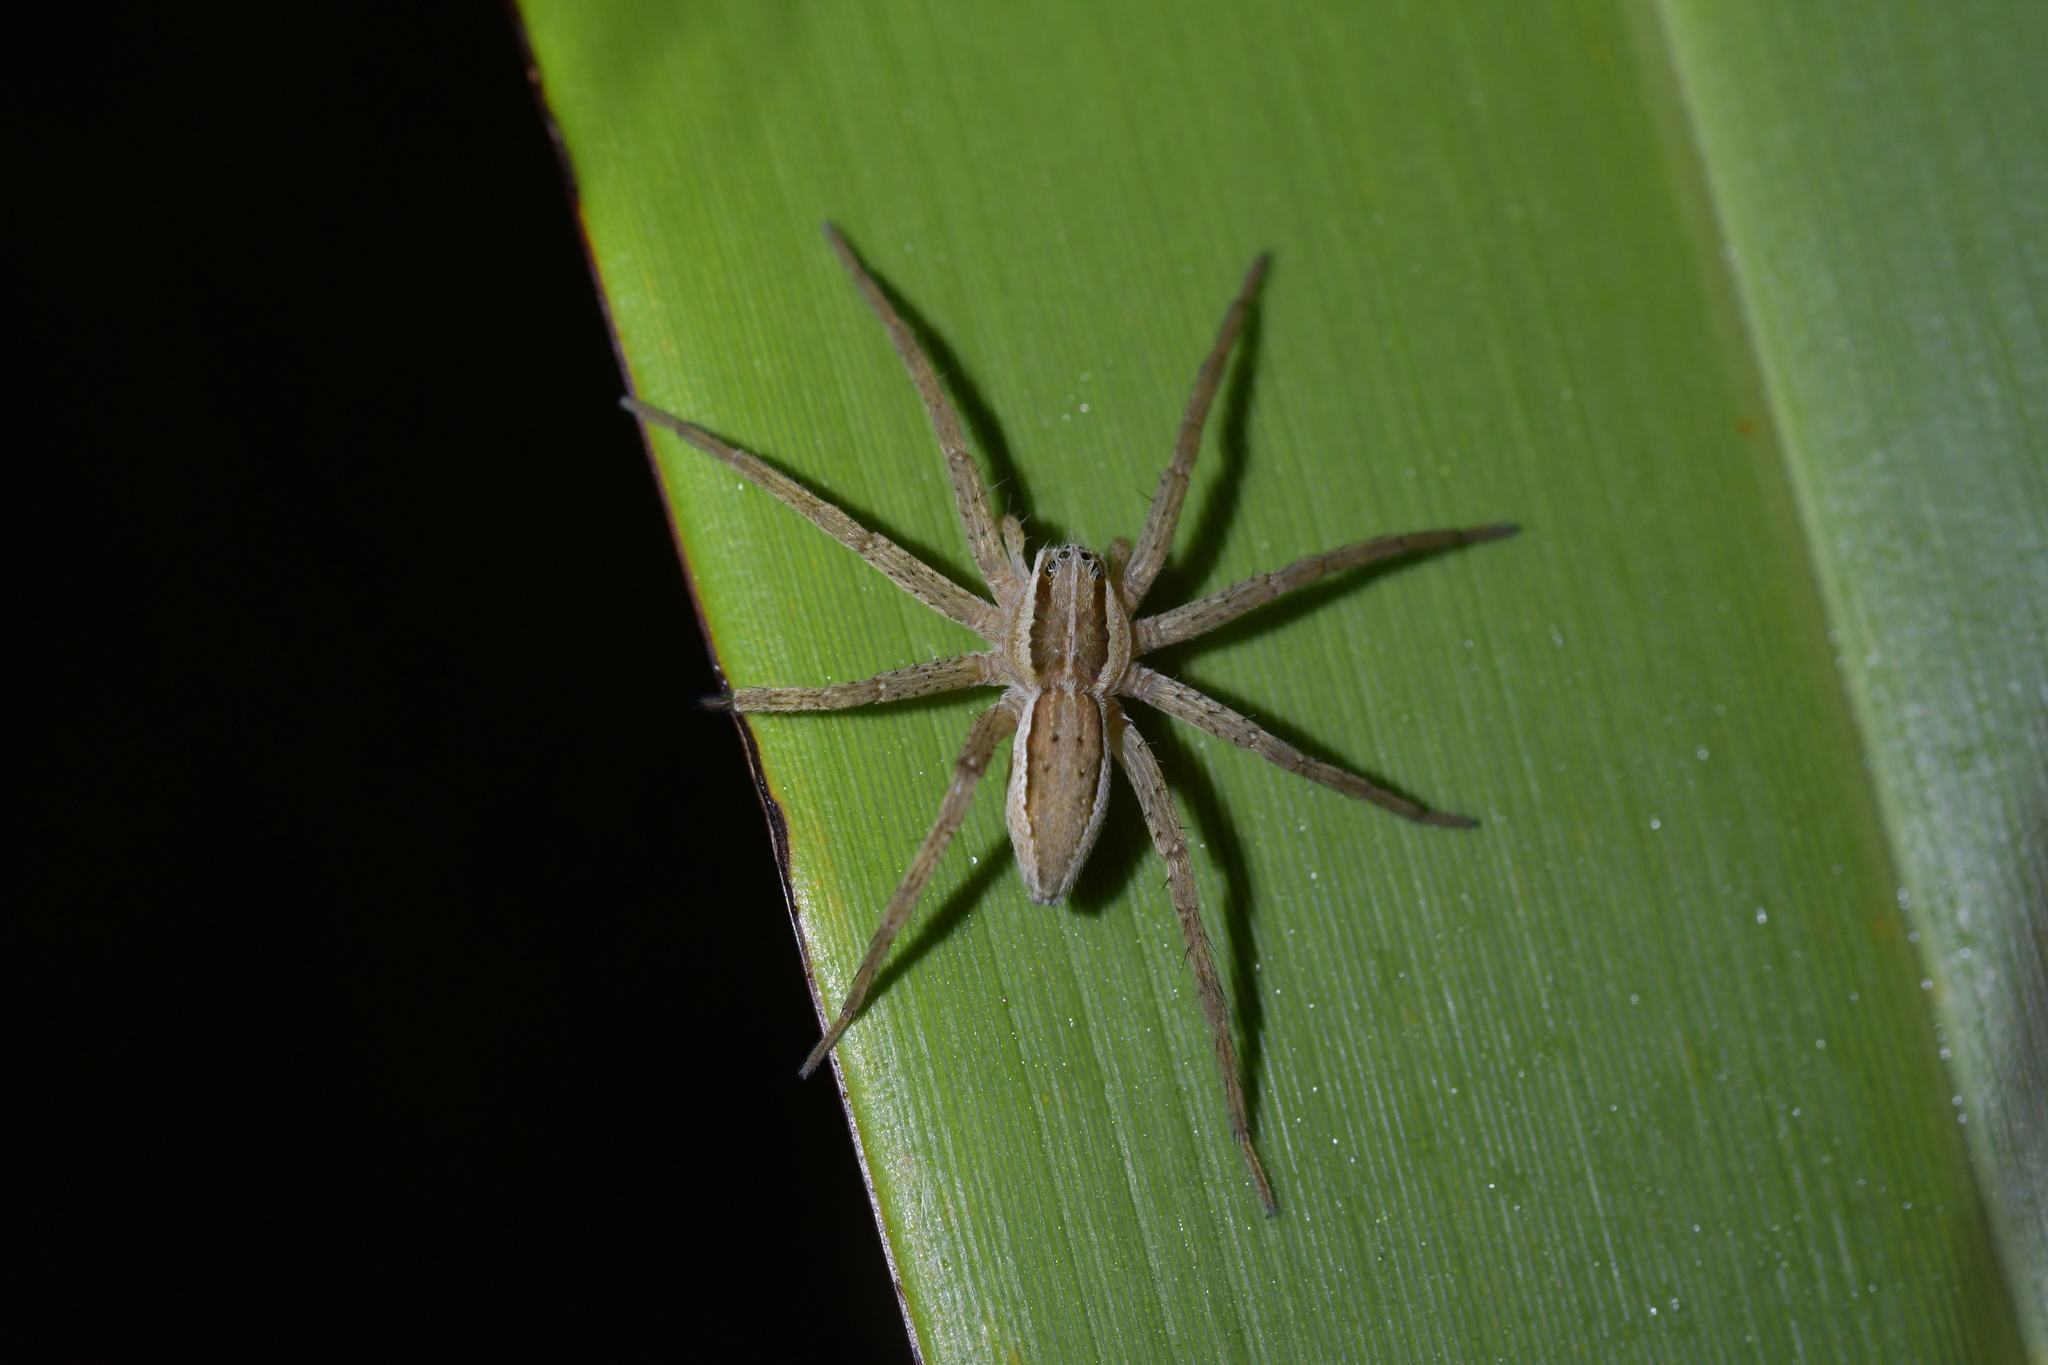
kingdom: Animalia
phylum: Arthropoda
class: Arachnida
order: Araneae
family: Pisauridae
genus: Dolomedes
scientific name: Dolomedes minor
